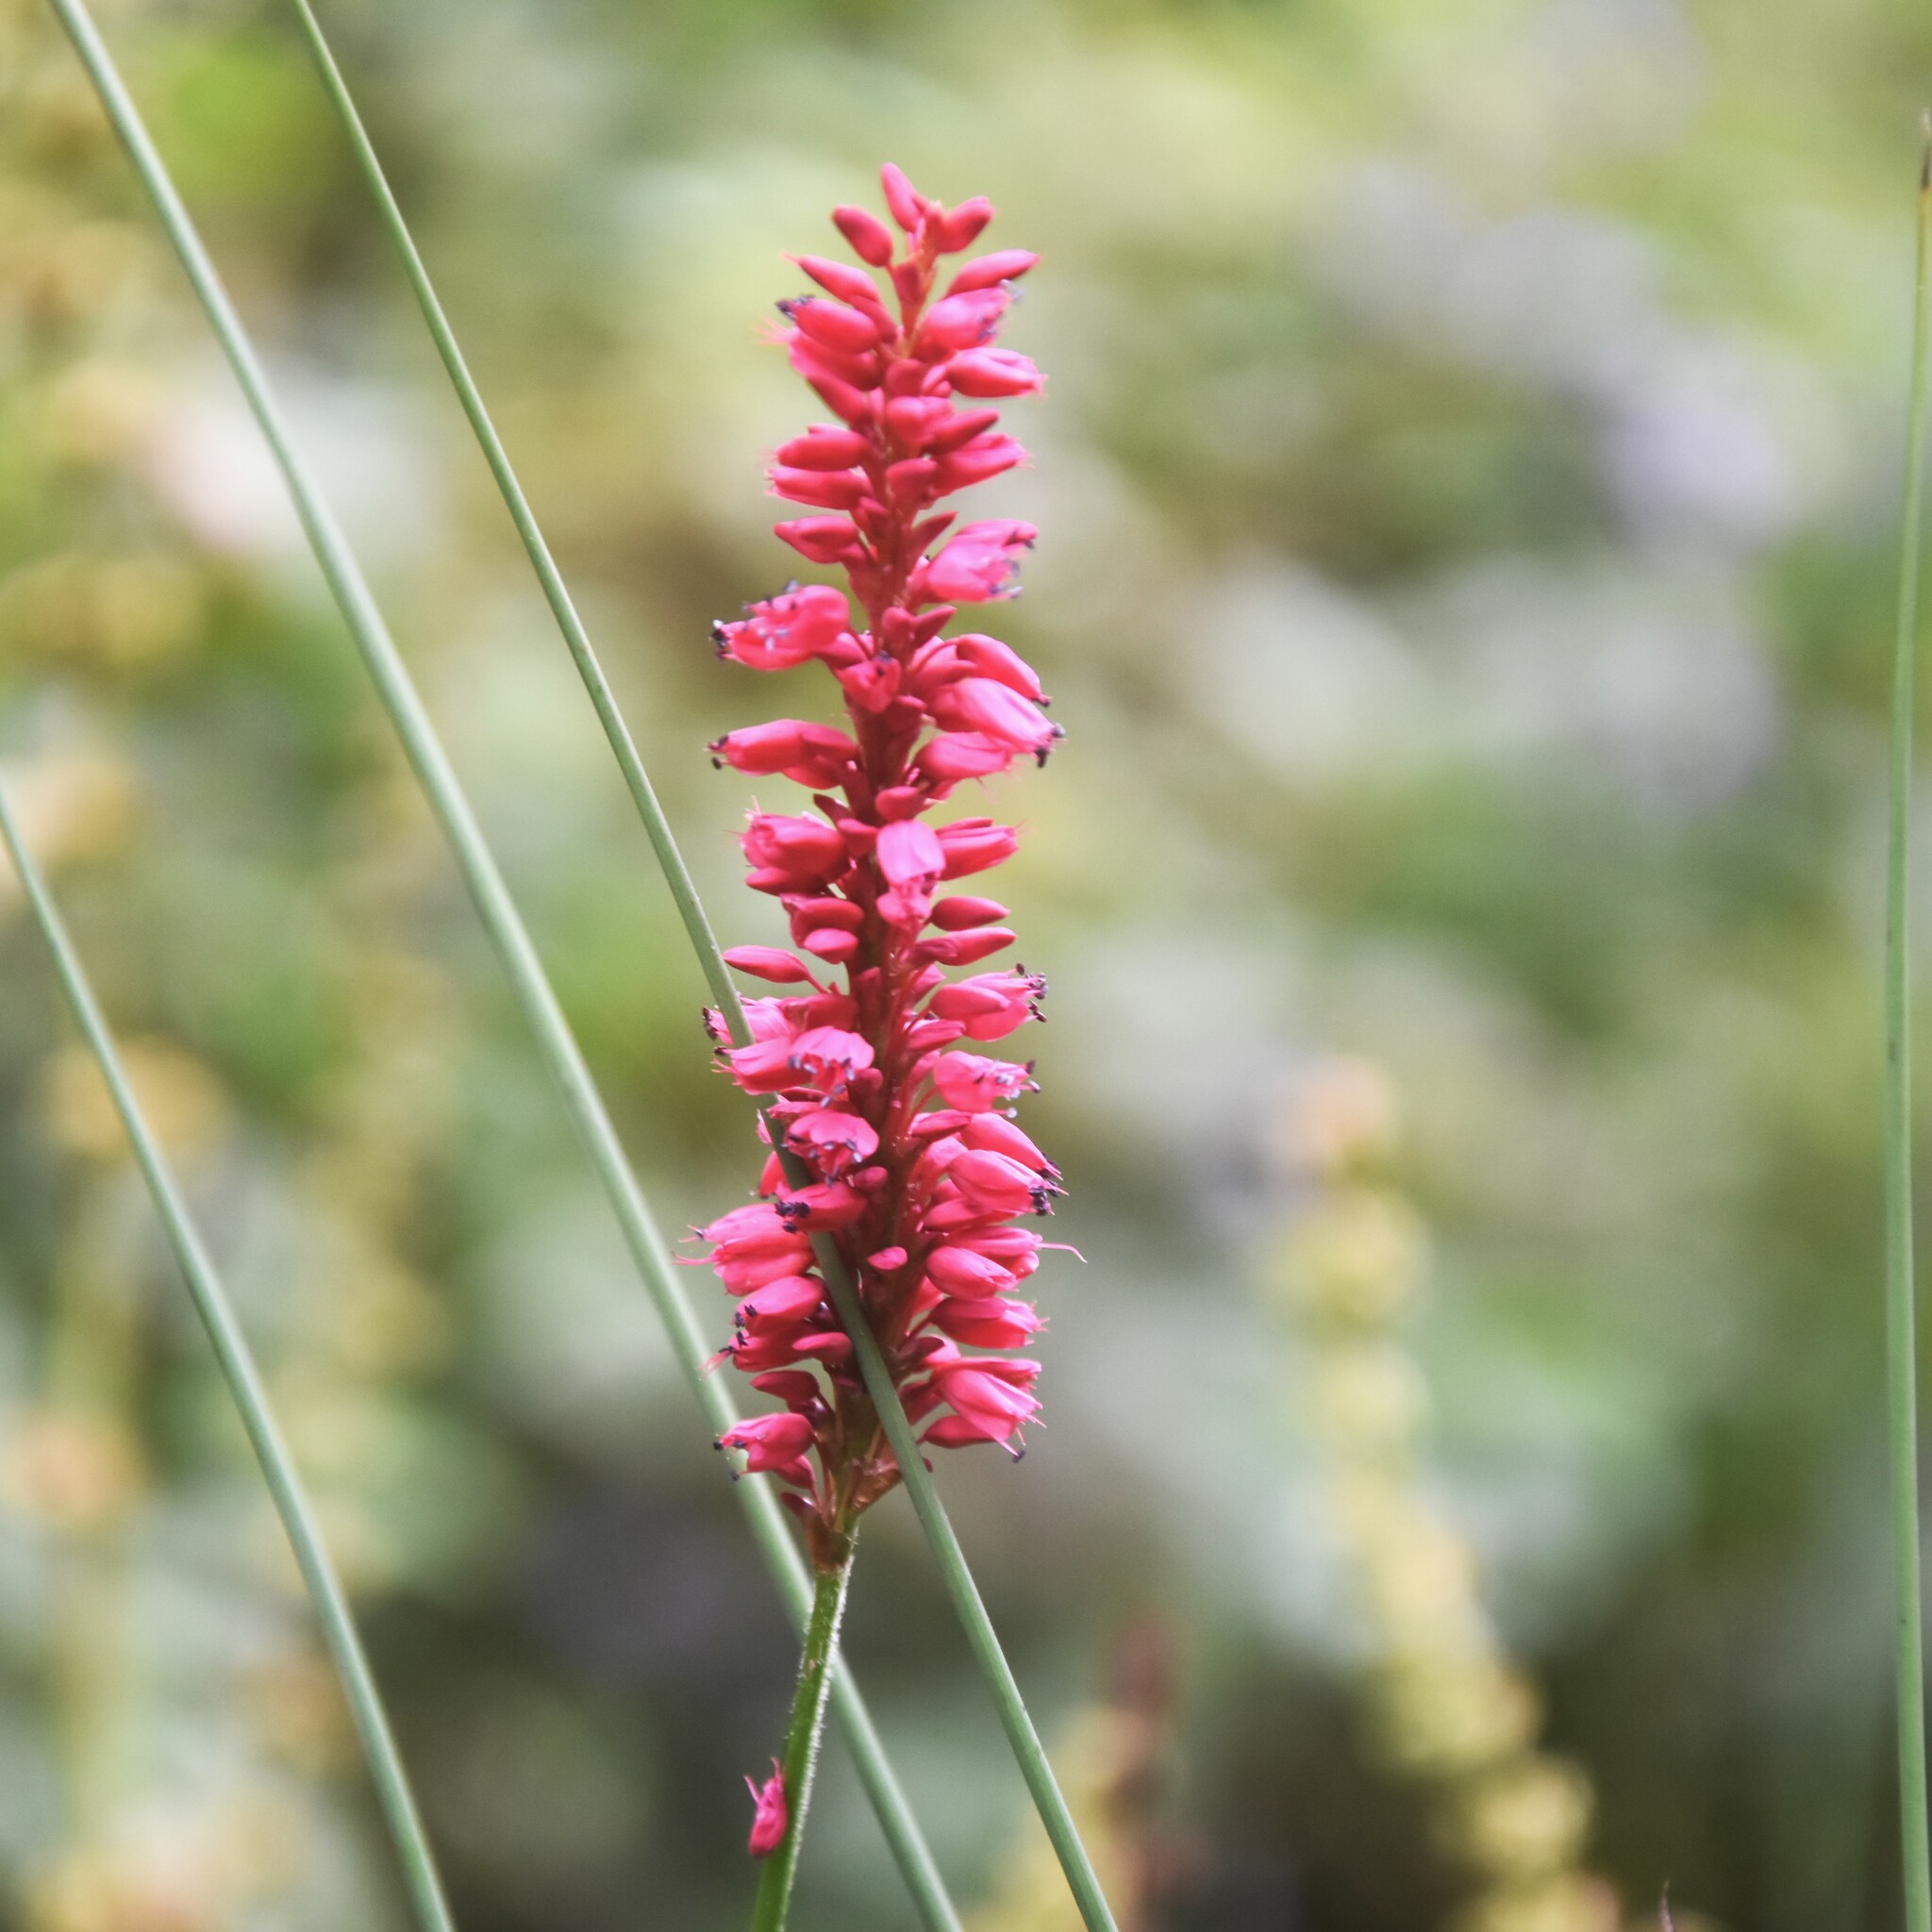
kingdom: Plantae
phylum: Tracheophyta
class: Magnoliopsida
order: Caryophyllales
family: Polygonaceae
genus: Bistorta
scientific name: Bistorta amplexicaulis
